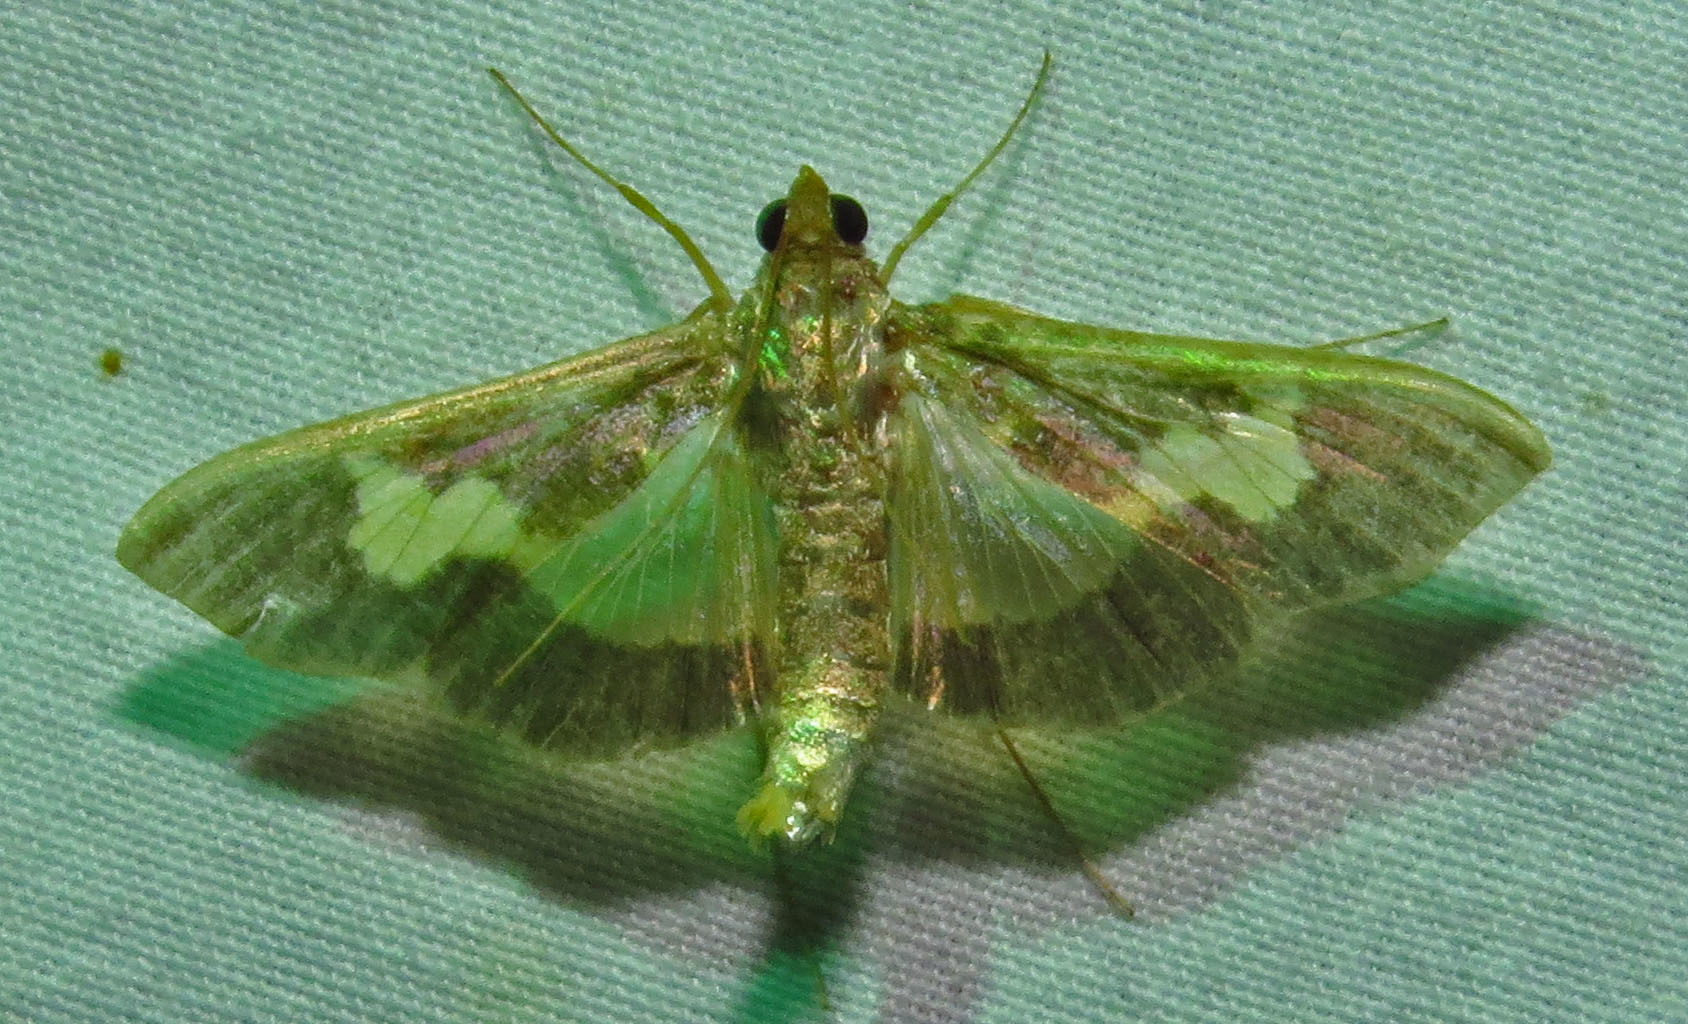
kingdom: Animalia
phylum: Arthropoda
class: Insecta
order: Lepidoptera
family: Crambidae
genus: Cryptographis
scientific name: Cryptographis nitidalis
